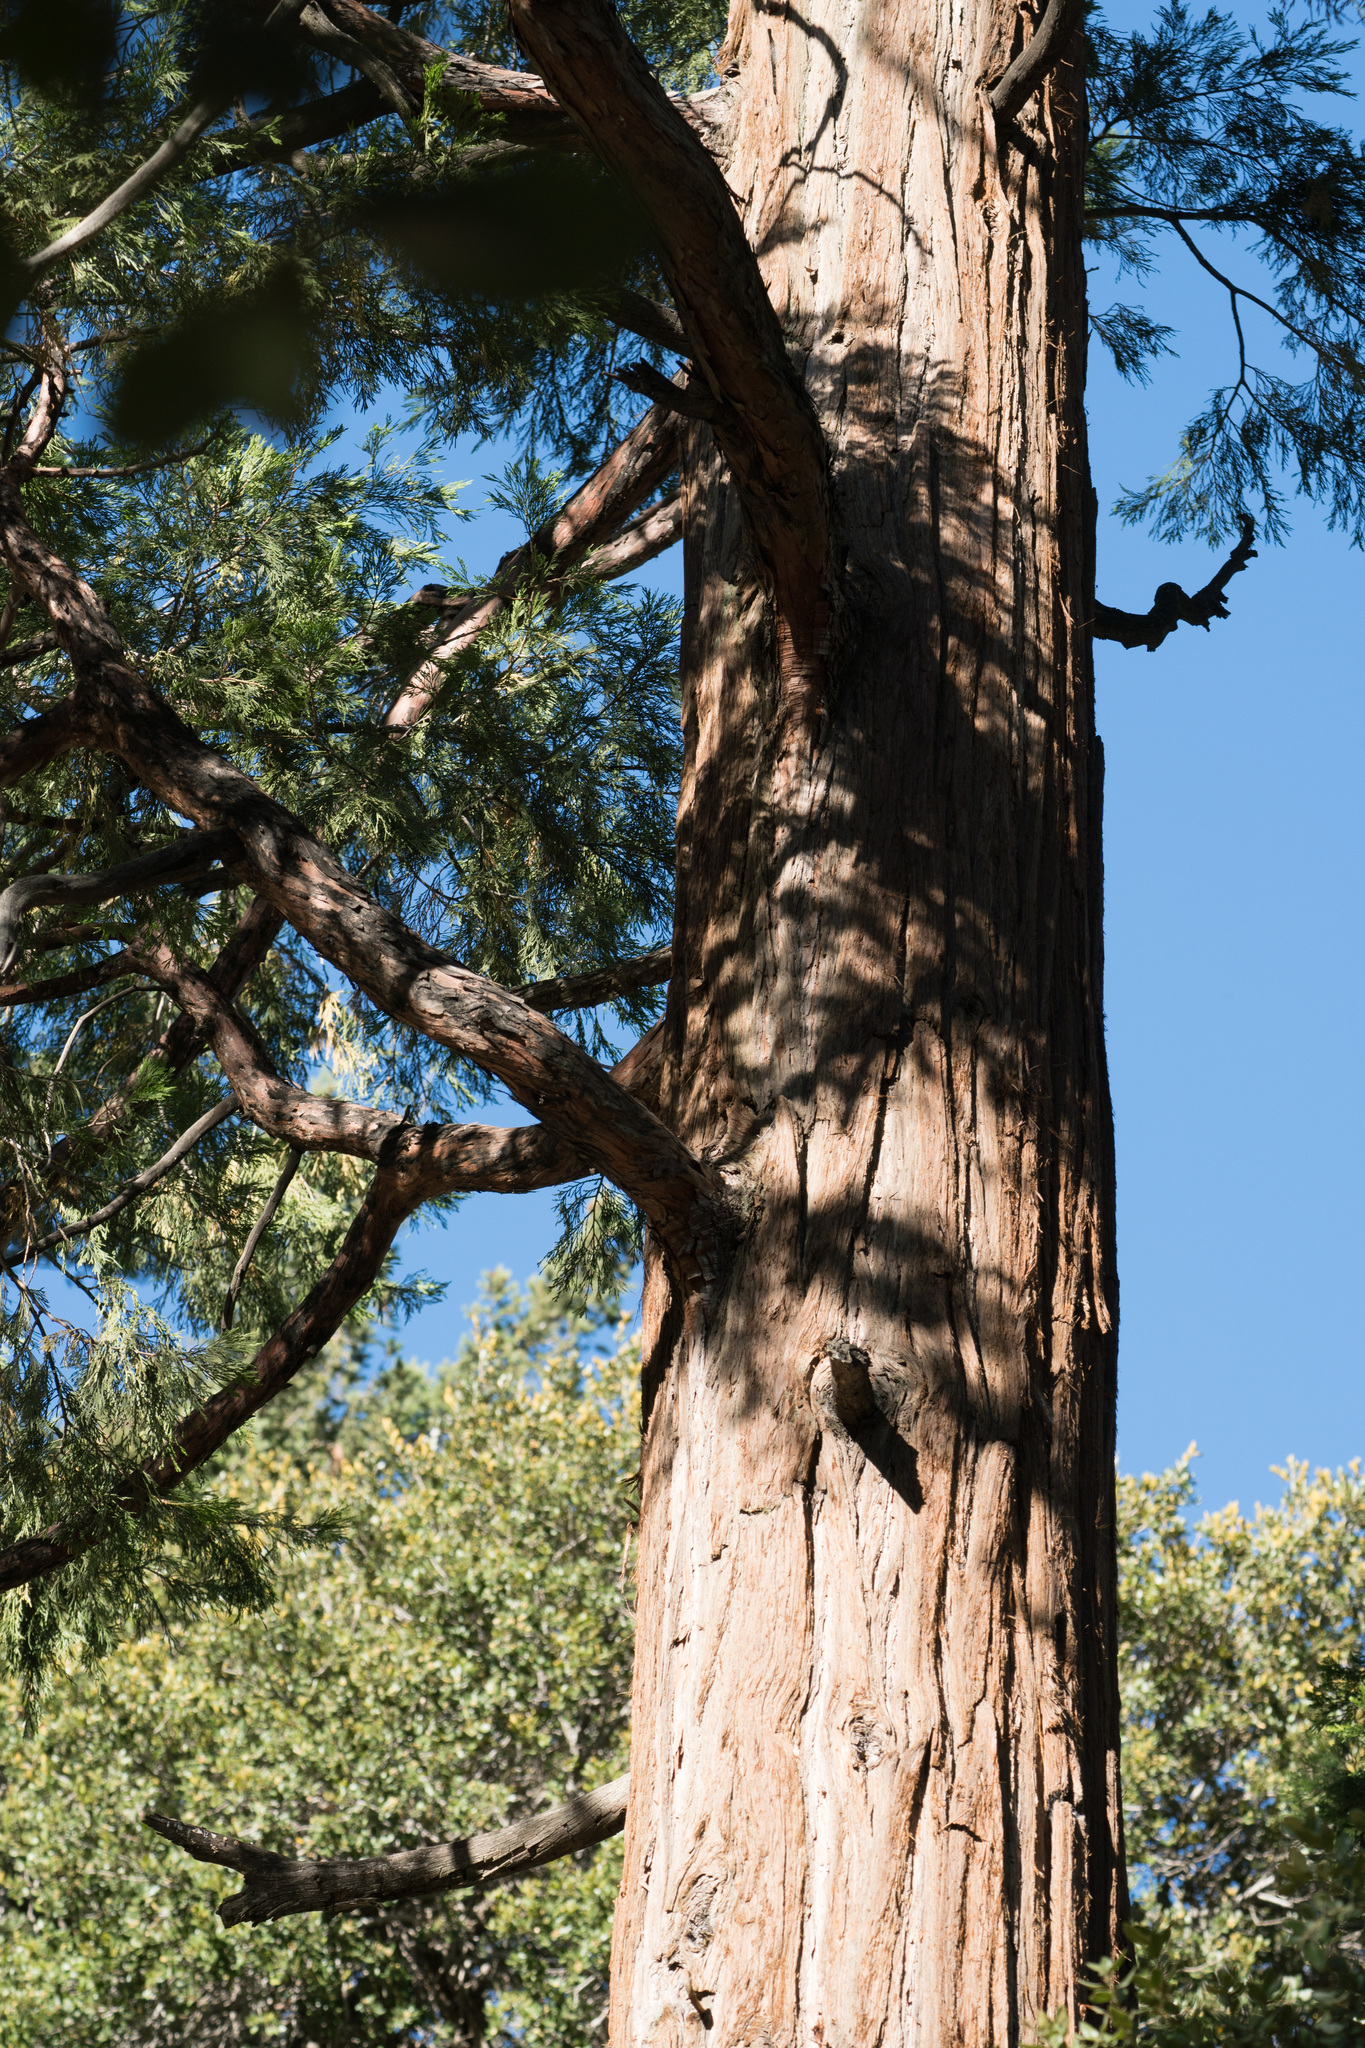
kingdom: Plantae
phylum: Tracheophyta
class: Pinopsida
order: Pinales
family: Cupressaceae
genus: Calocedrus
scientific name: Calocedrus decurrens
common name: Californian incense-cedar
